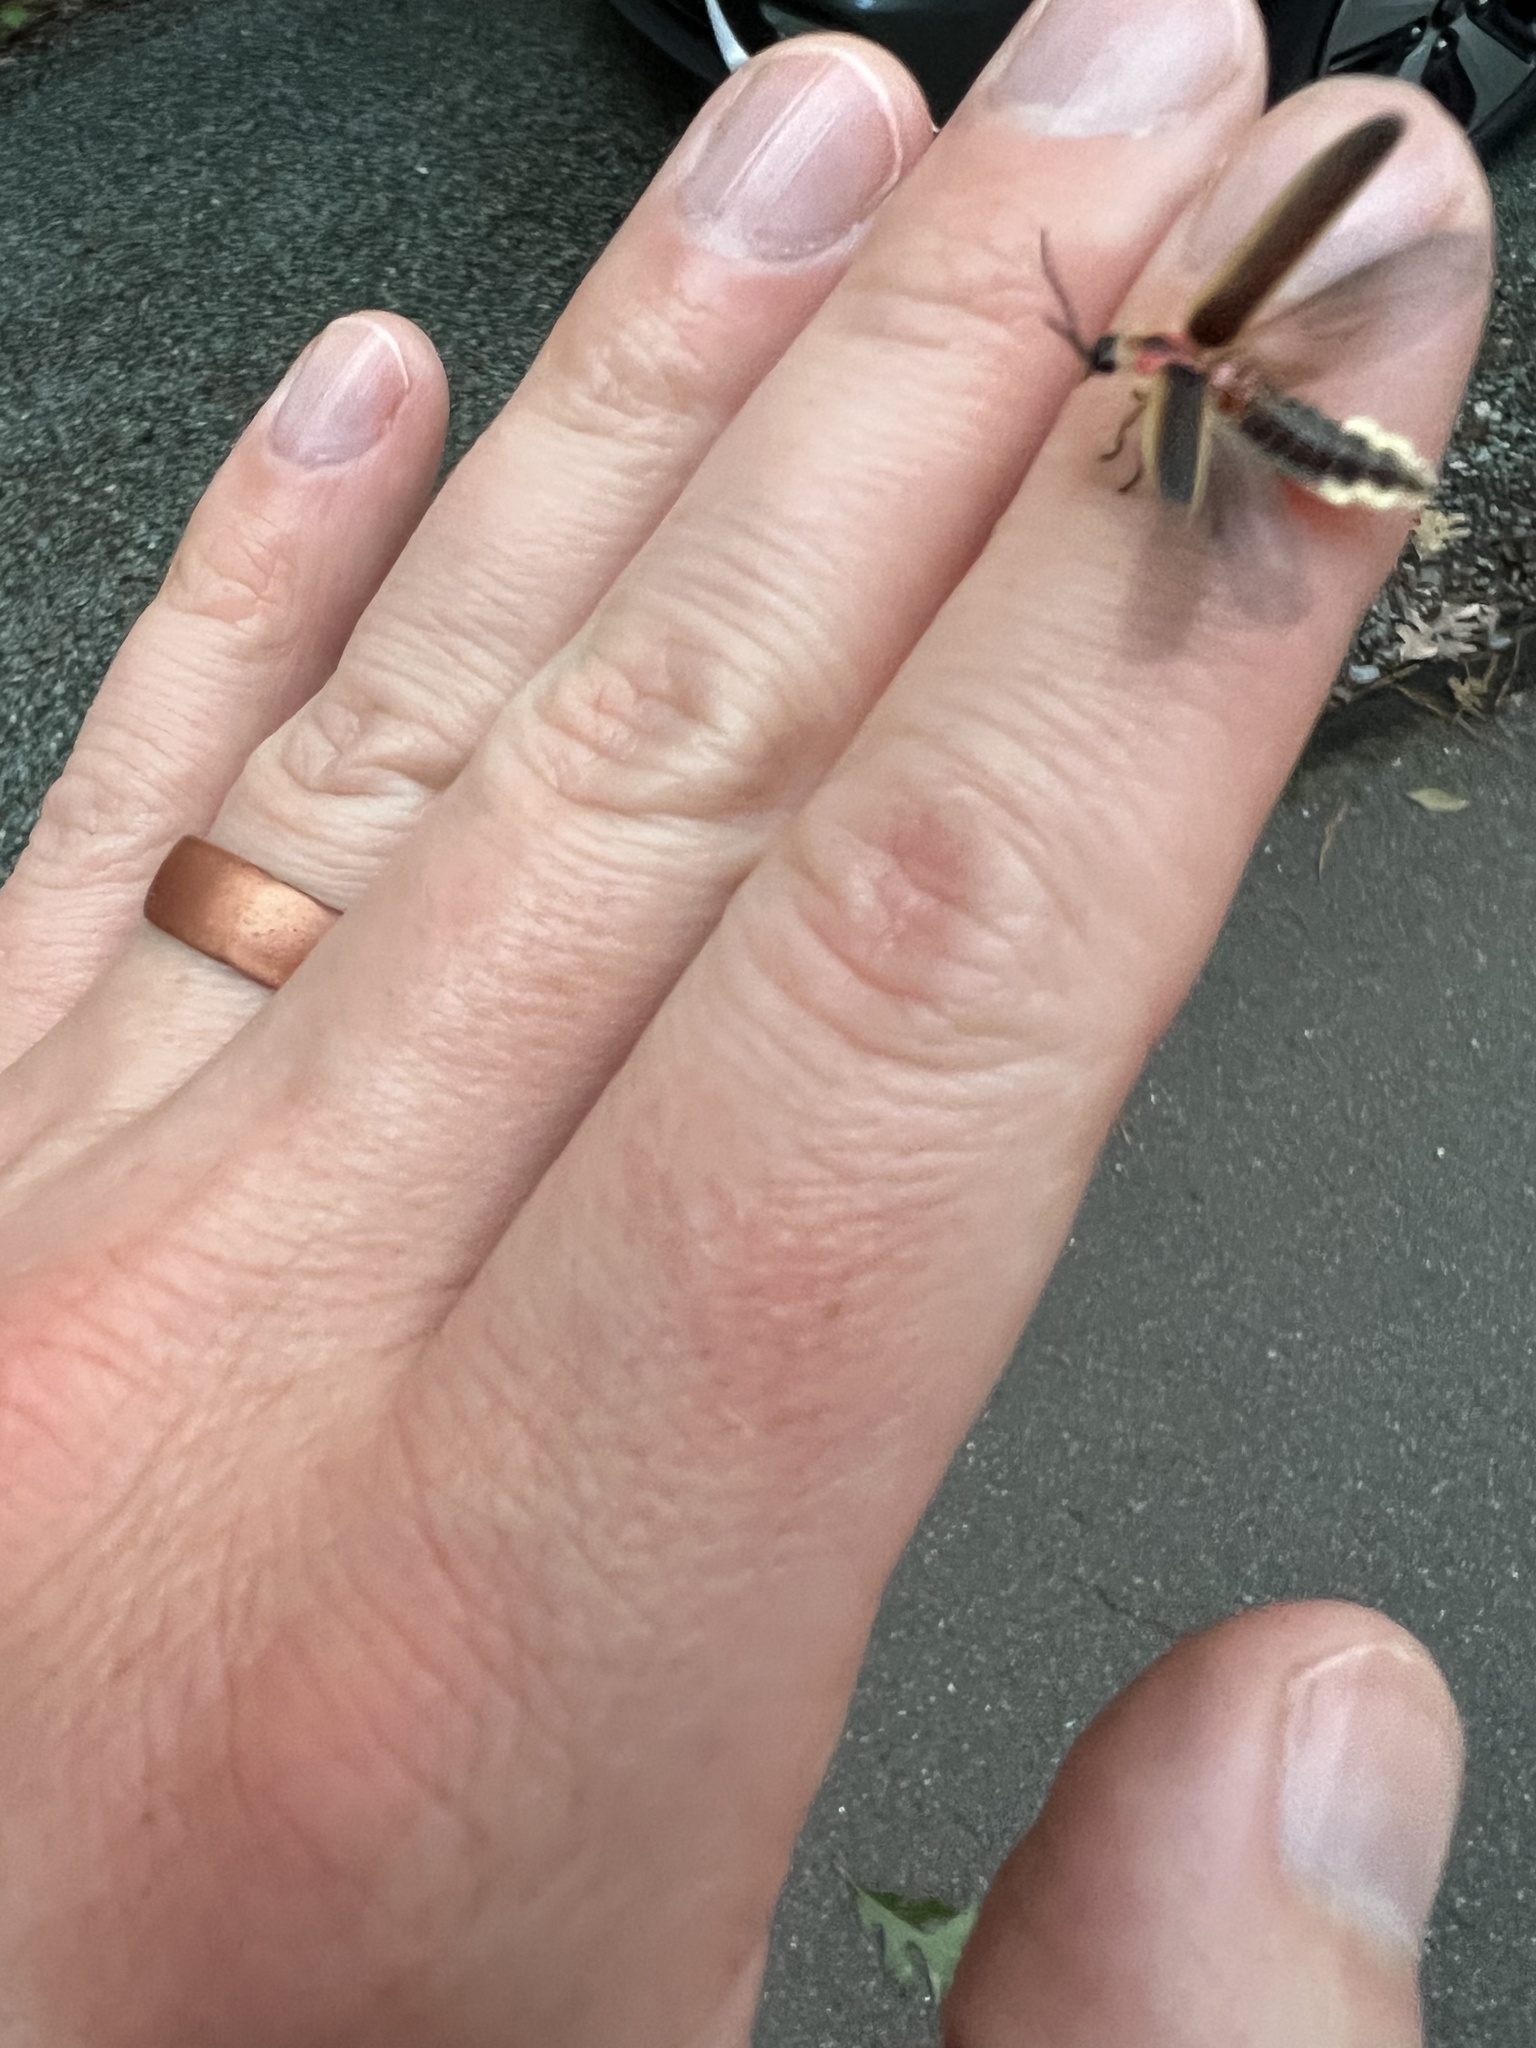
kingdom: Animalia
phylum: Arthropoda
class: Insecta
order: Coleoptera
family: Lampyridae
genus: Photinus
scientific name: Photinus pyralis
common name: Big dipper firefly
